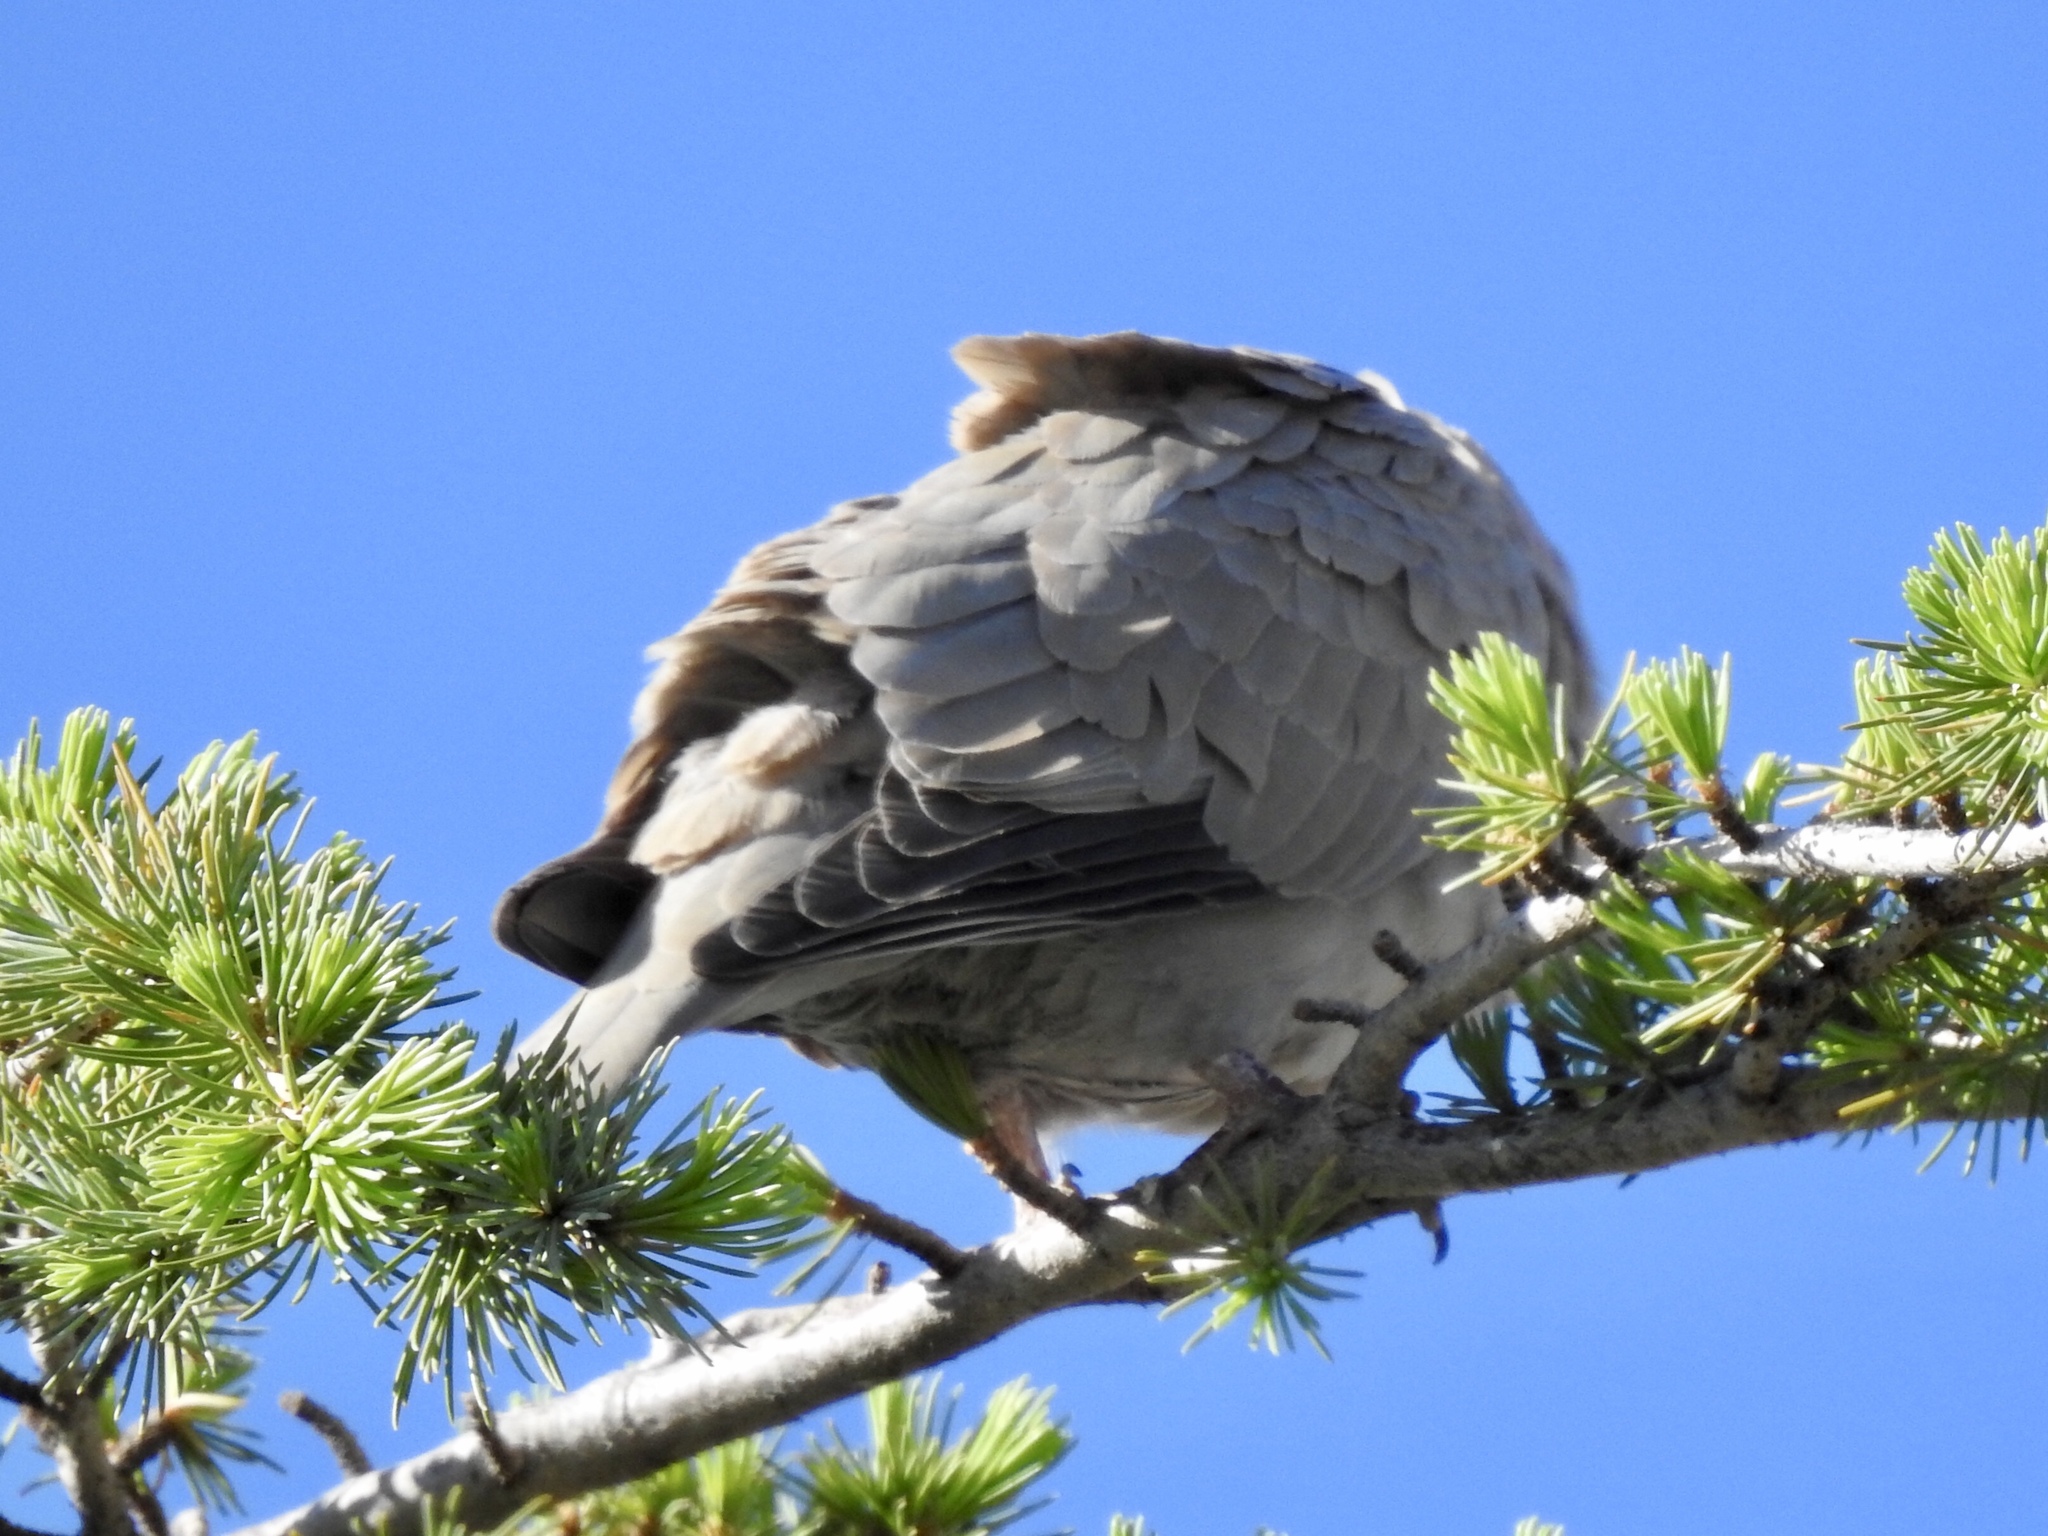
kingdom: Animalia
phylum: Chordata
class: Aves
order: Columbiformes
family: Columbidae
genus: Streptopelia
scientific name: Streptopelia decaocto
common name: Eurasian collared dove
